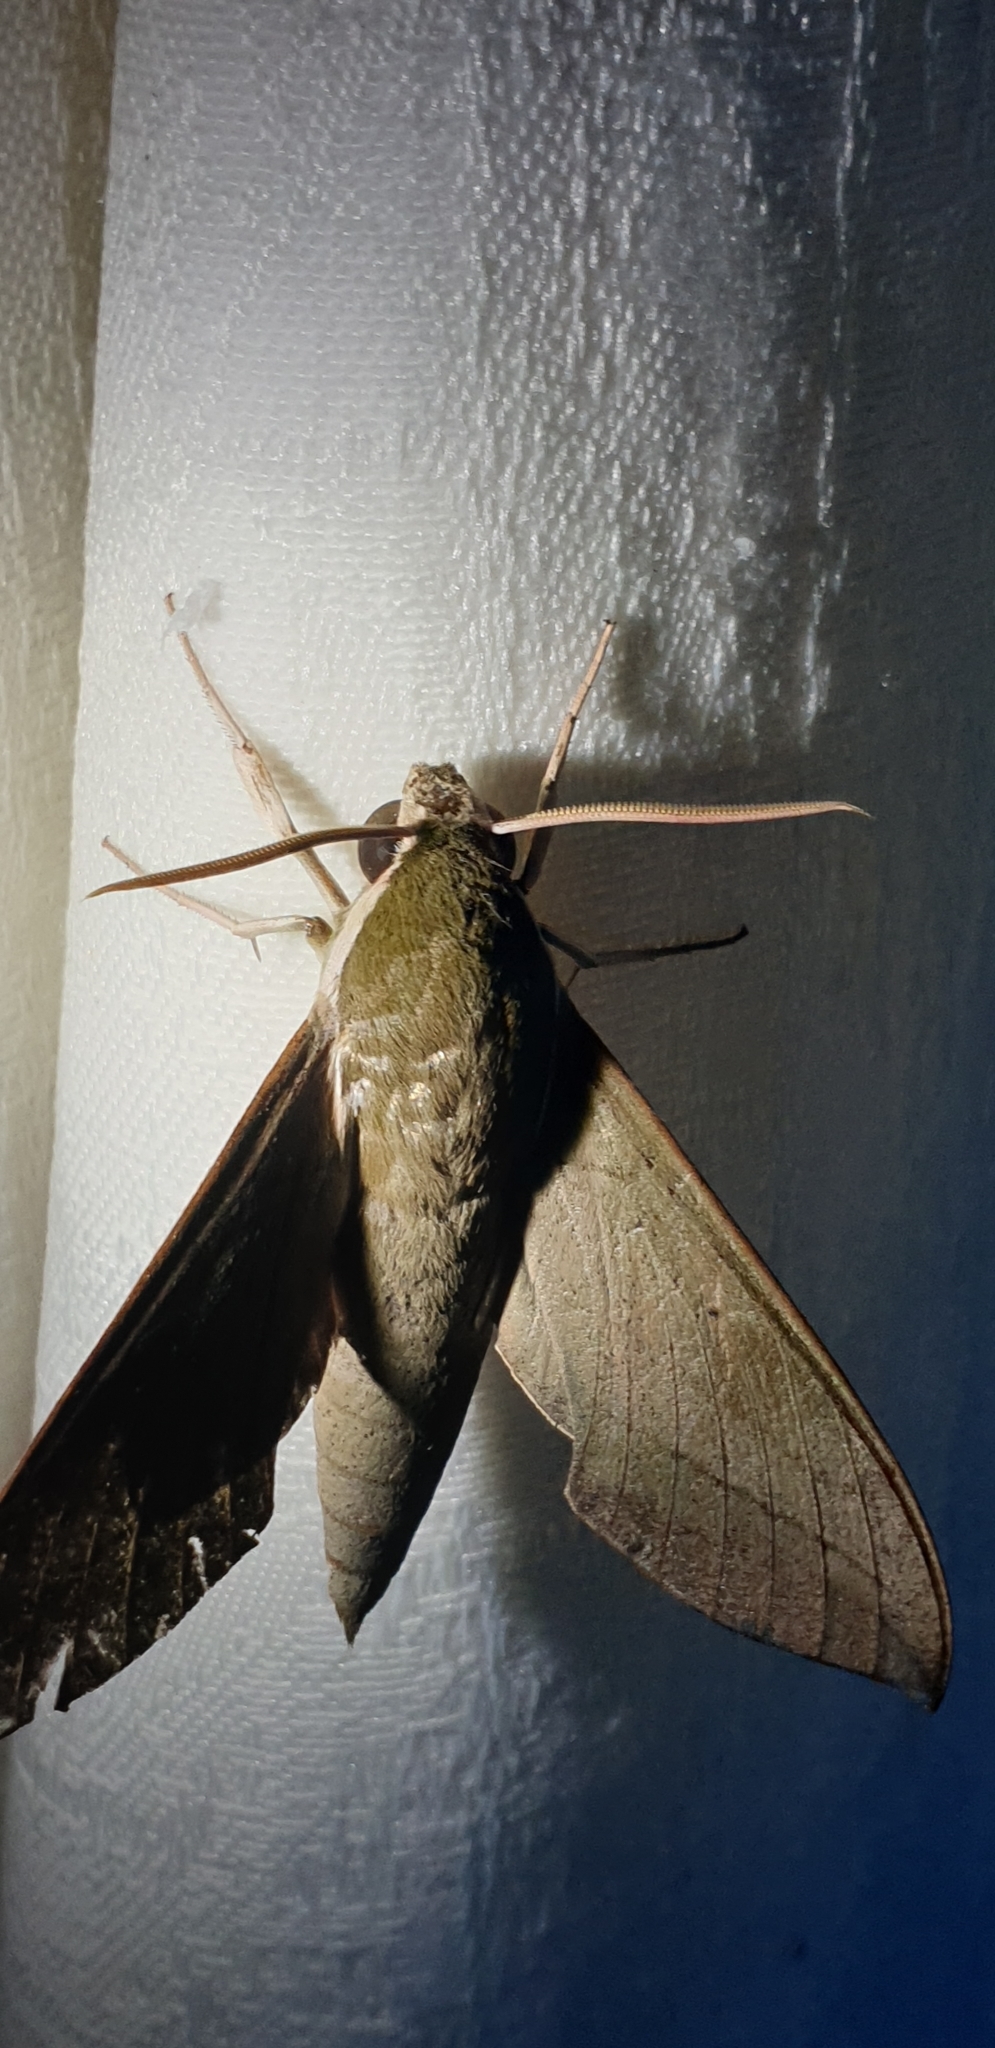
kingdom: Animalia
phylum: Arthropoda
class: Insecta
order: Lepidoptera
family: Sphingidae
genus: Theretra
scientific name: Theretra latreillii
